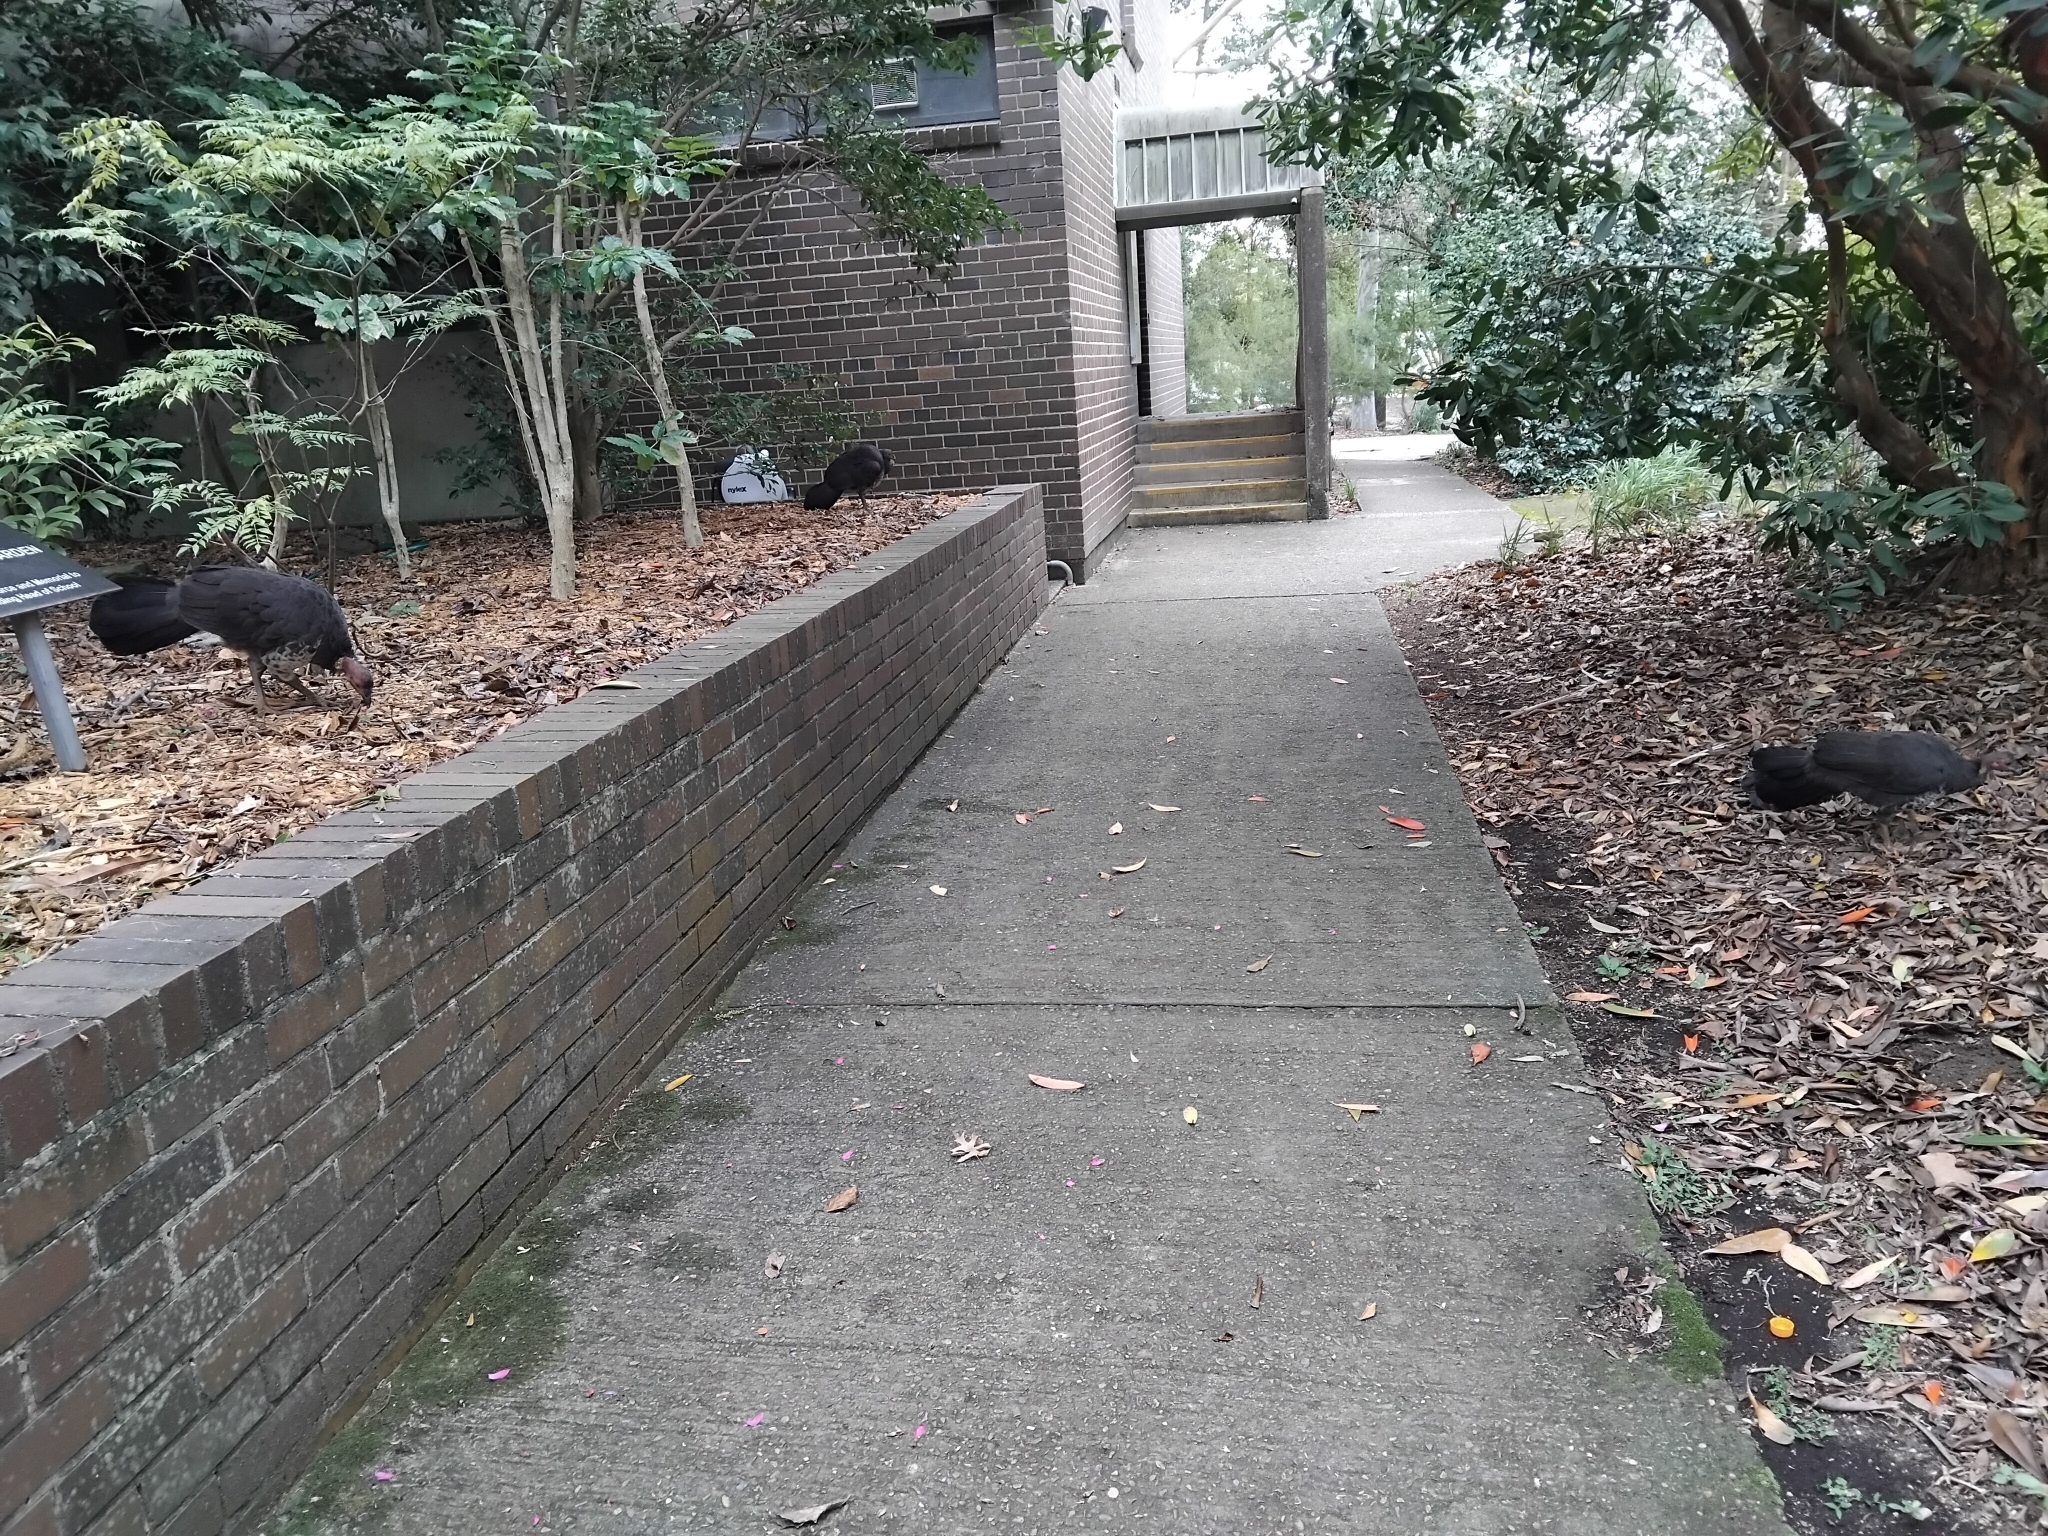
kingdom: Animalia
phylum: Chordata
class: Aves
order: Galliformes
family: Megapodiidae
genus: Alectura
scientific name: Alectura lathami
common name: Australian brushturkey
